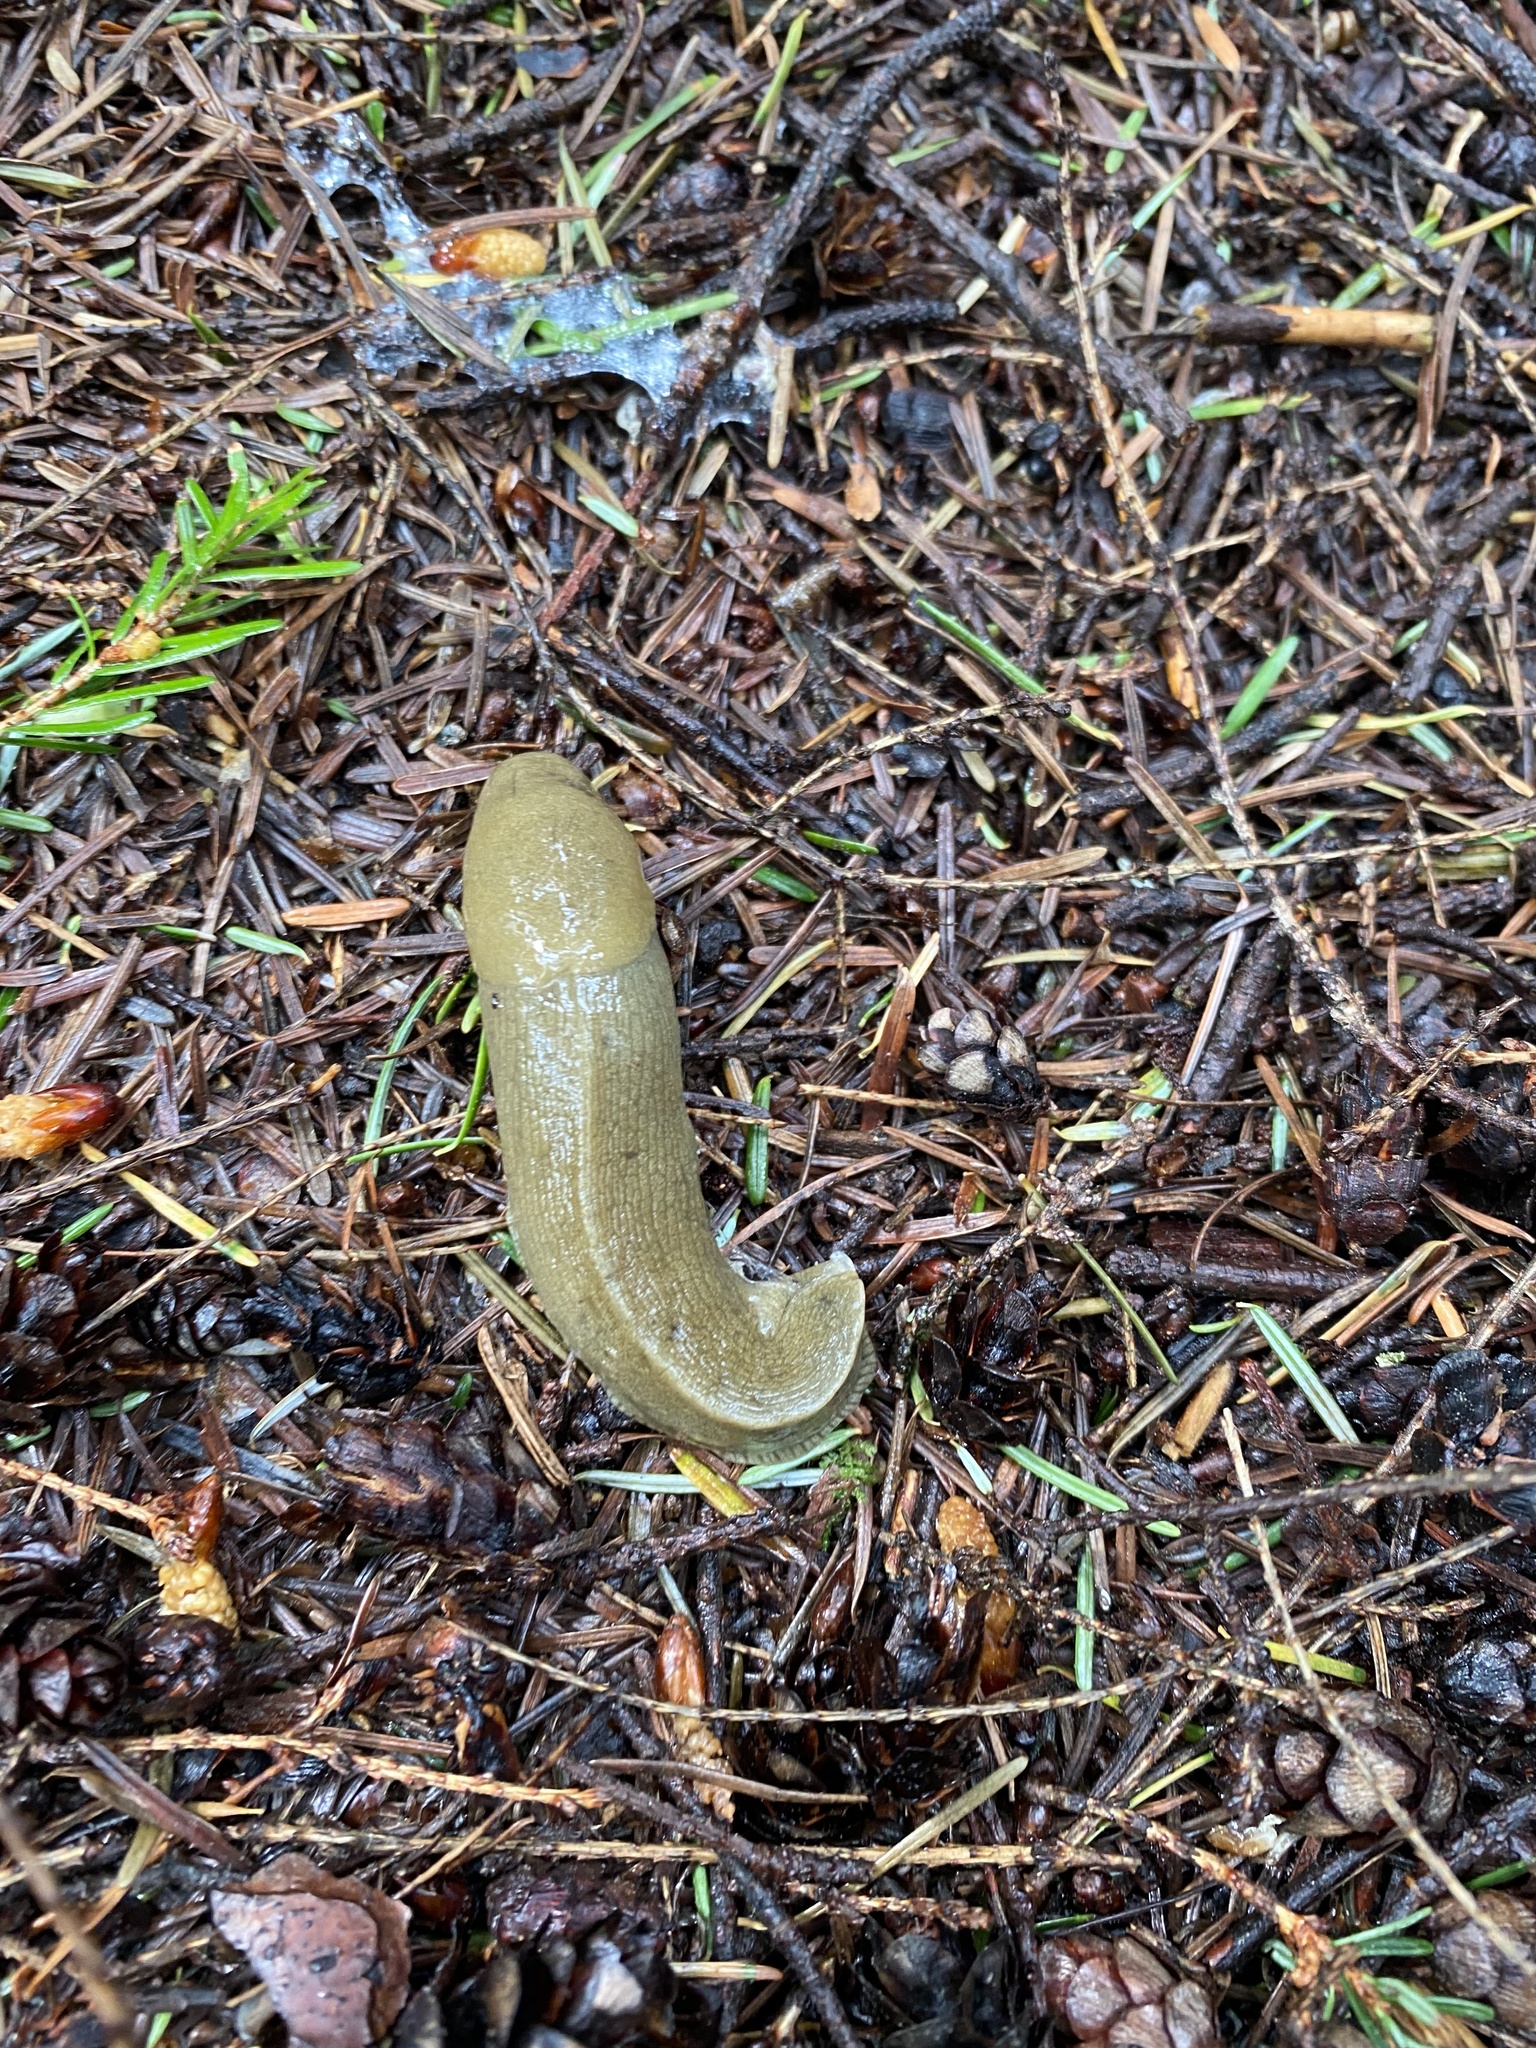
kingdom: Animalia
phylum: Mollusca
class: Gastropoda
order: Stylommatophora
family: Ariolimacidae
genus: Ariolimax
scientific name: Ariolimax columbianus
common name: Pacific banana slug
